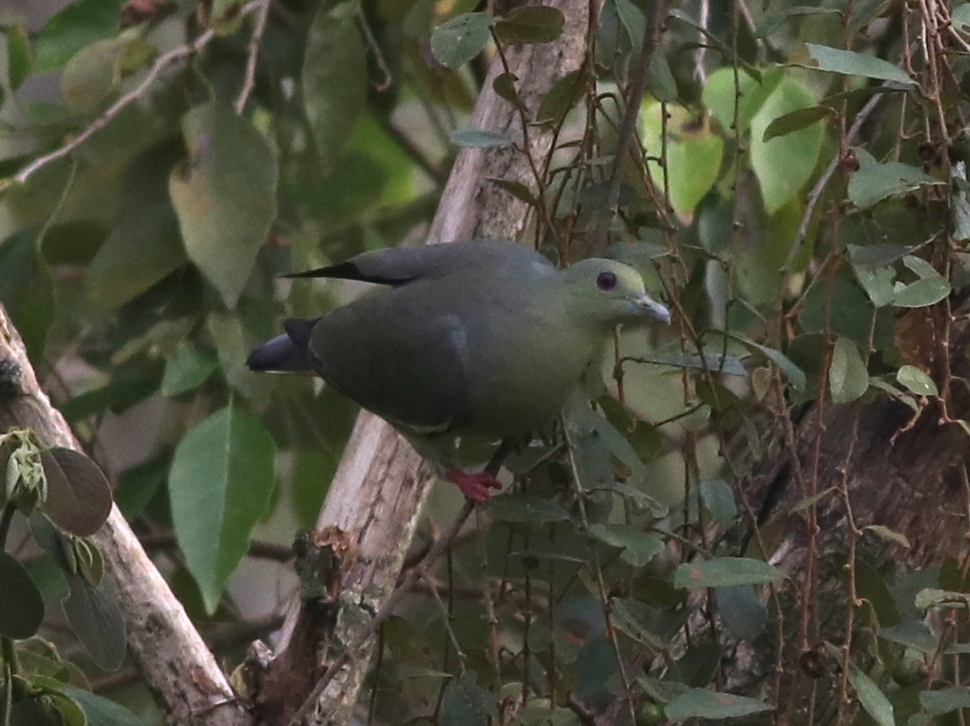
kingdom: Animalia
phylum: Chordata
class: Aves
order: Columbiformes
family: Columbidae
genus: Treron
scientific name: Treron vernans
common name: Pink-necked green pigeon
